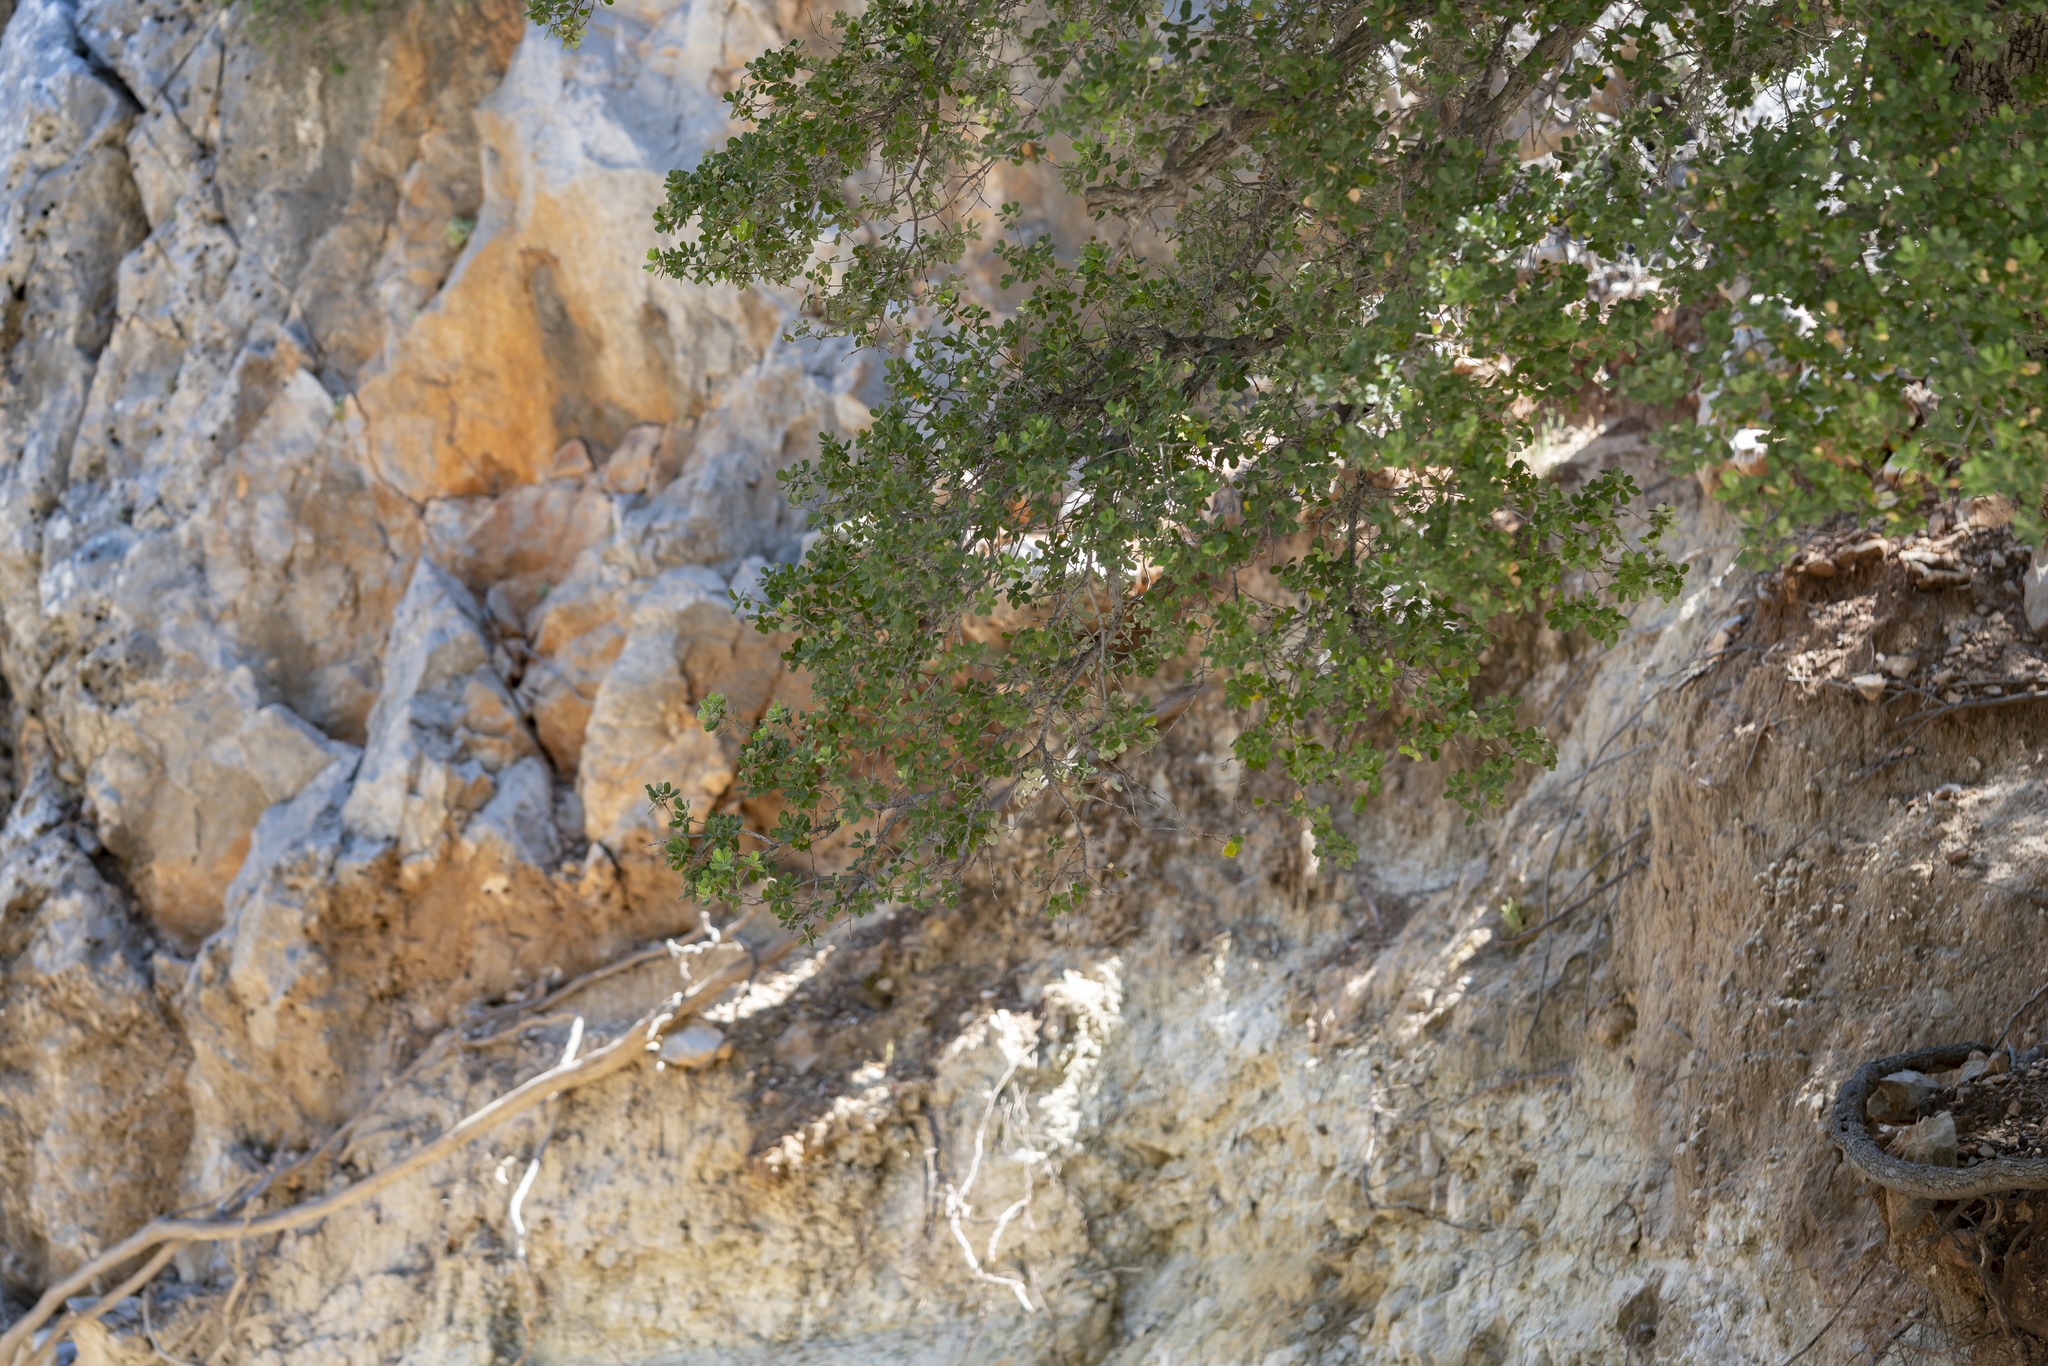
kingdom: Plantae
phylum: Tracheophyta
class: Magnoliopsida
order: Fagales
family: Fagaceae
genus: Quercus
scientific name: Quercus aucheri
